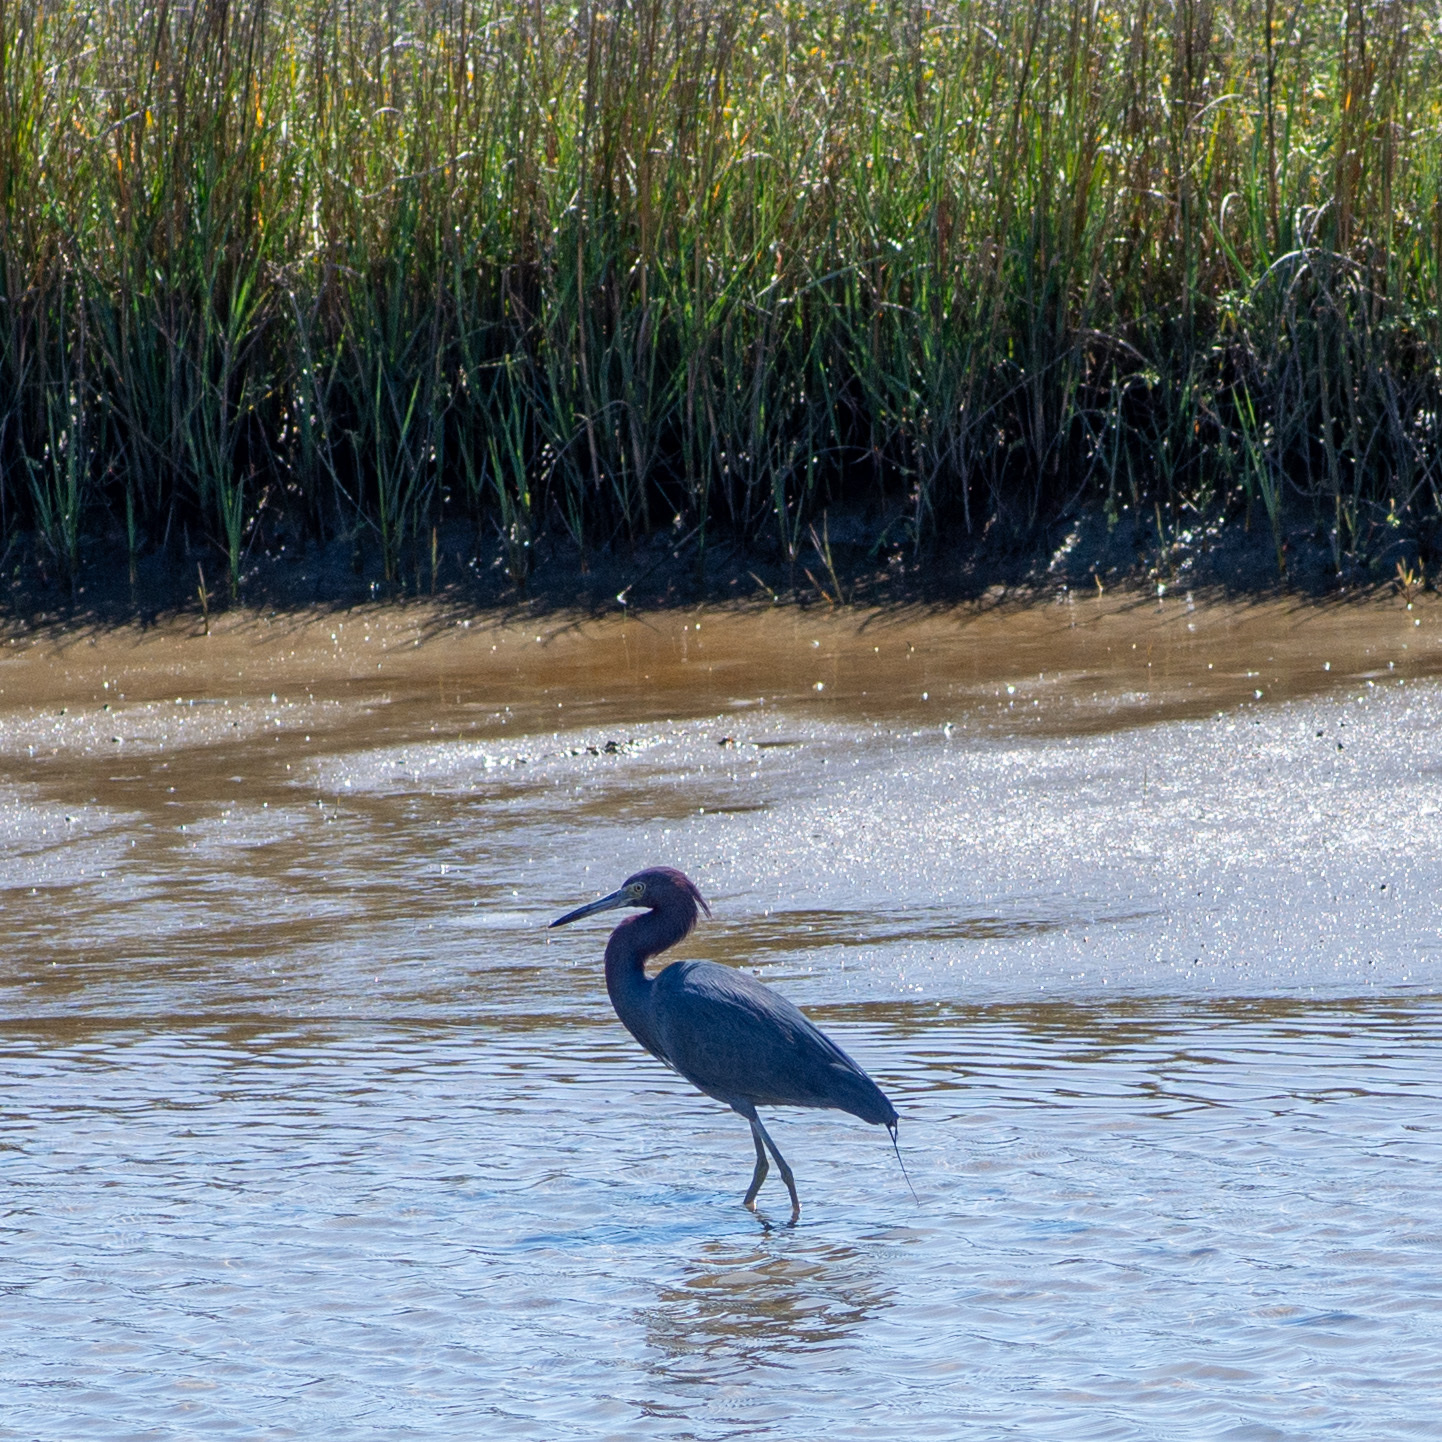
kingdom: Animalia
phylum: Chordata
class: Aves
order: Pelecaniformes
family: Ardeidae
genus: Egretta
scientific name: Egretta caerulea
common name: Little blue heron
